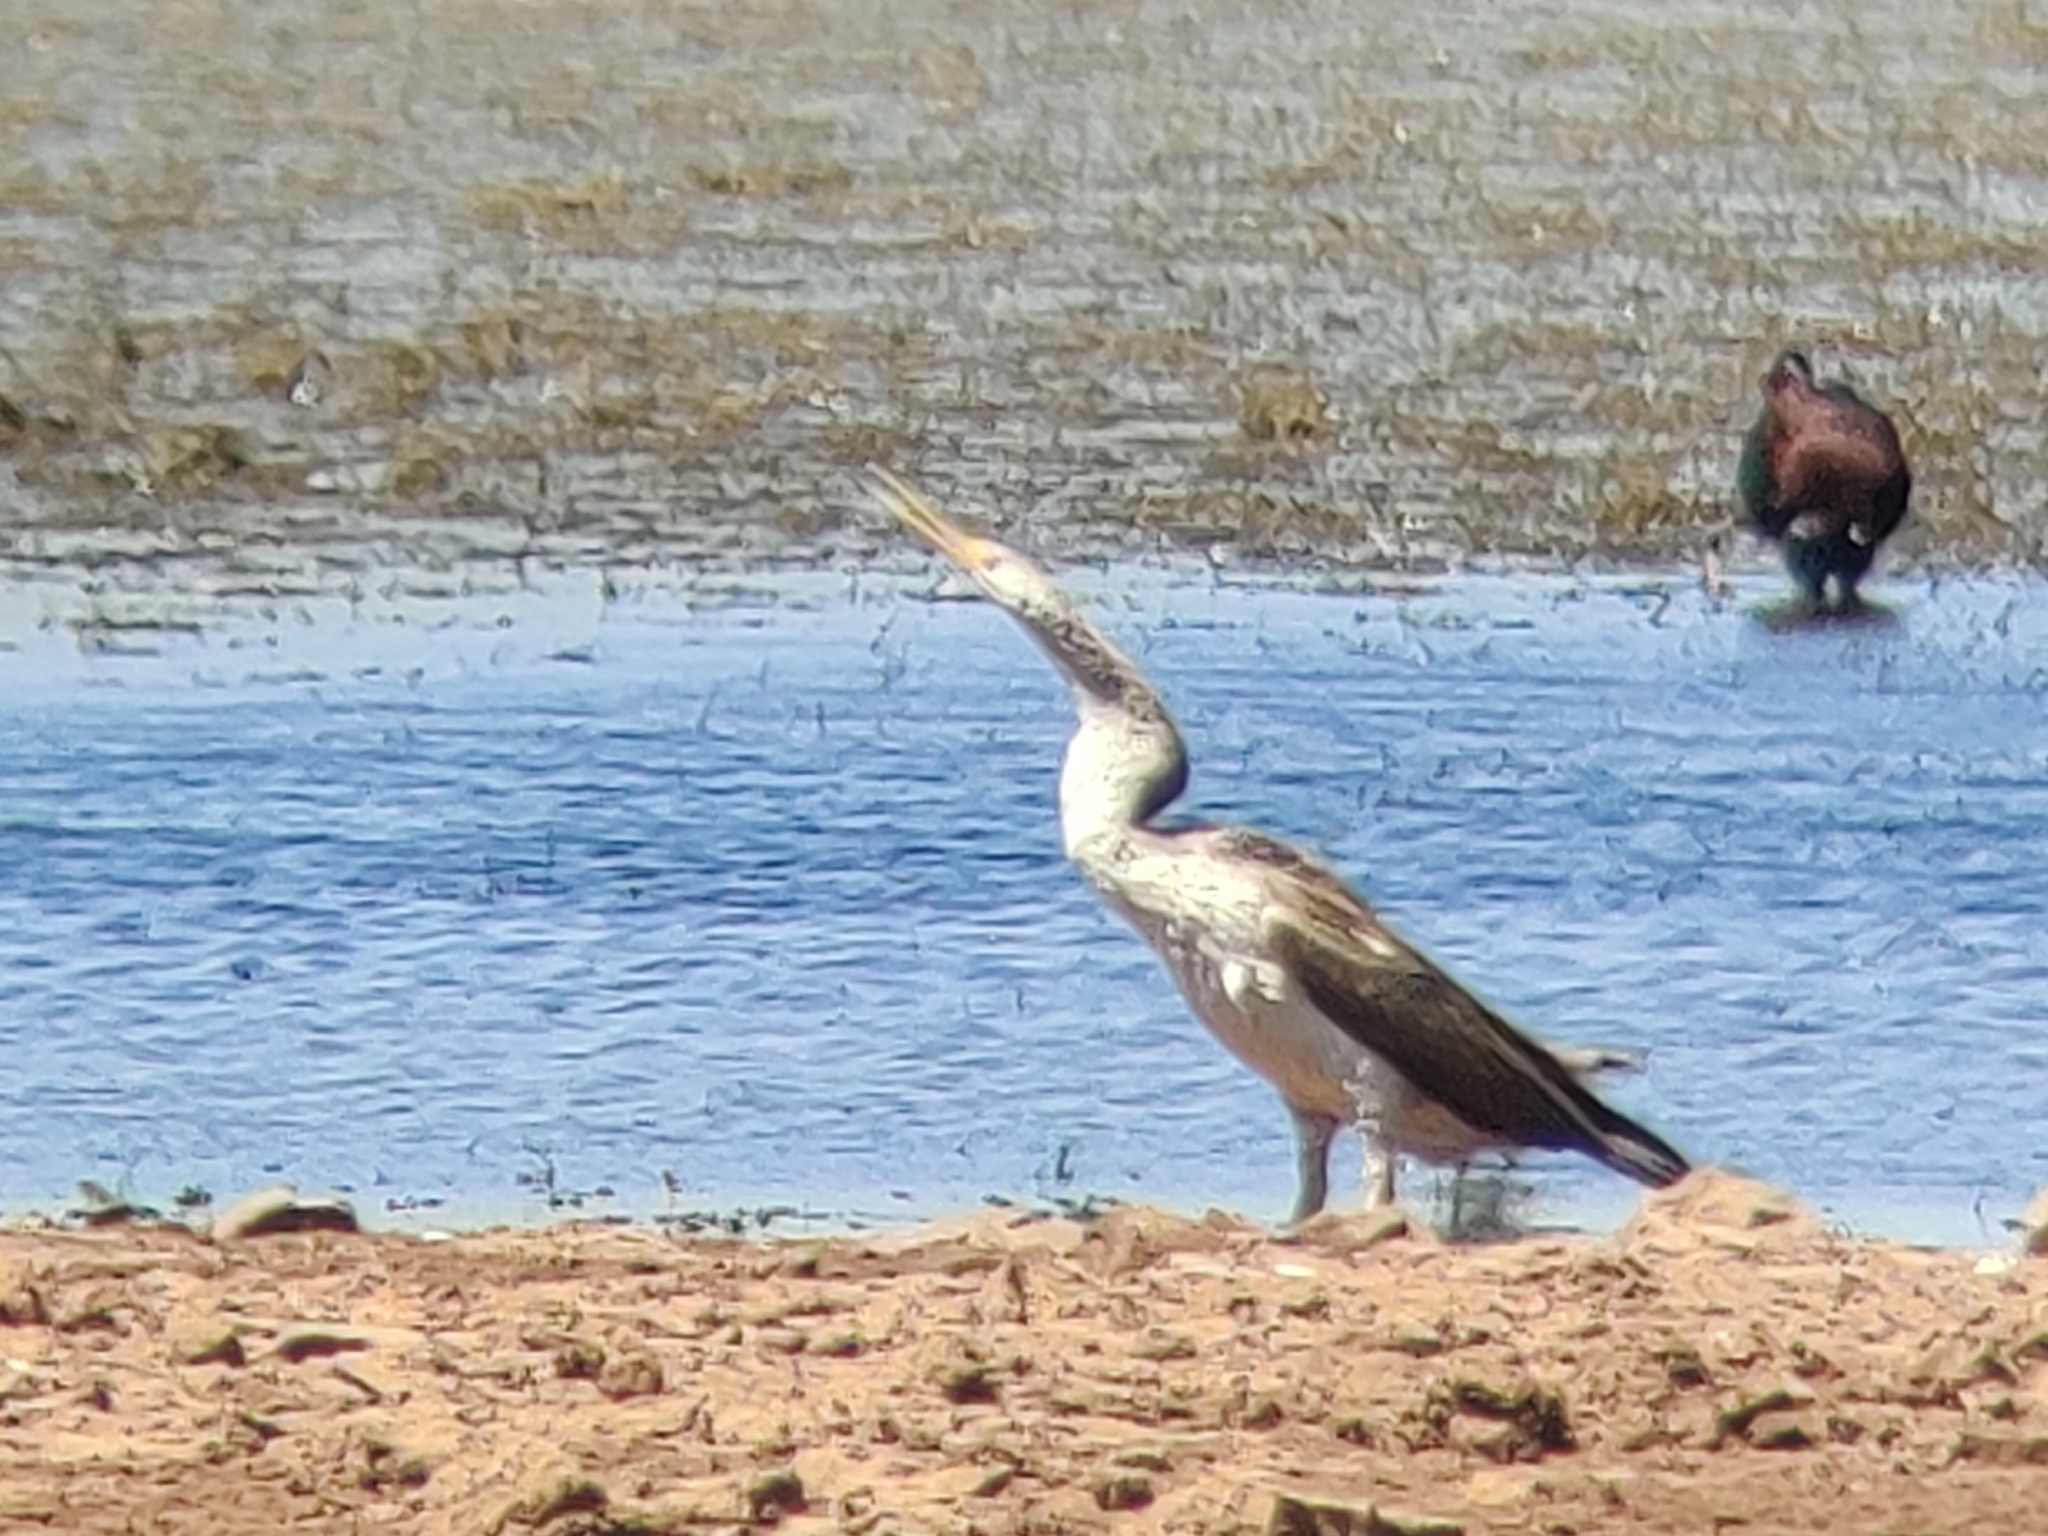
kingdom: Animalia
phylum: Chordata
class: Aves
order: Suliformes
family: Anhingidae
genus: Anhinga
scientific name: Anhinga novaehollandiae
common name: Australasian darter
